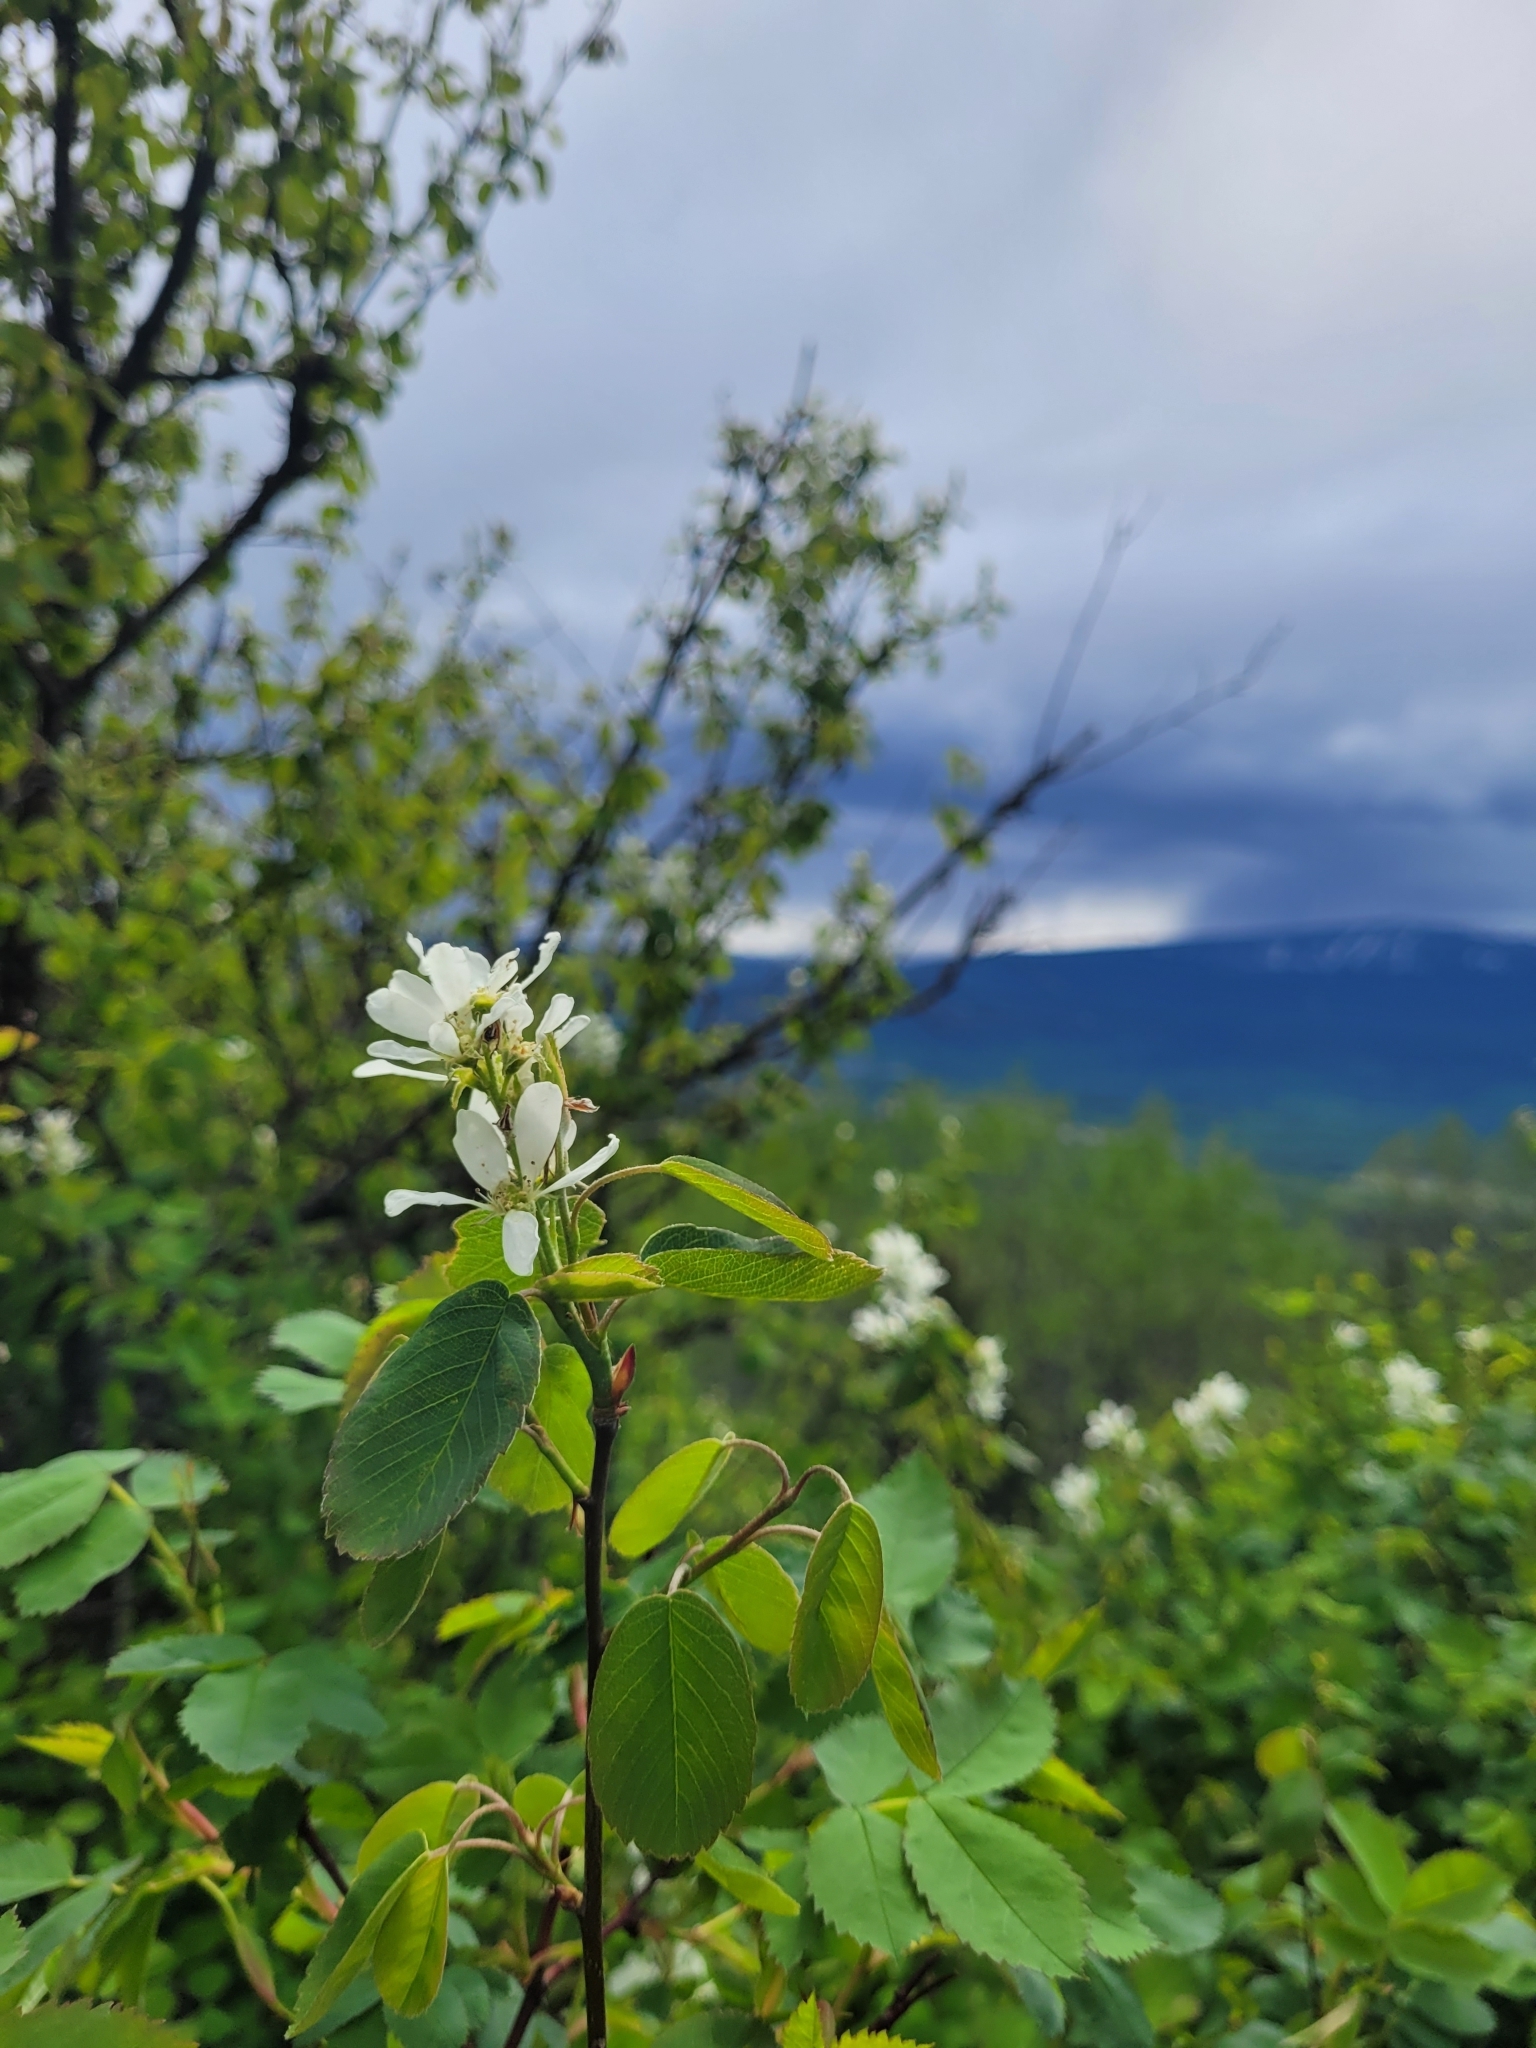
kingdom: Plantae
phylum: Tracheophyta
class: Magnoliopsida
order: Rosales
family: Rosaceae
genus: Amelanchier
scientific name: Amelanchier alnifolia
